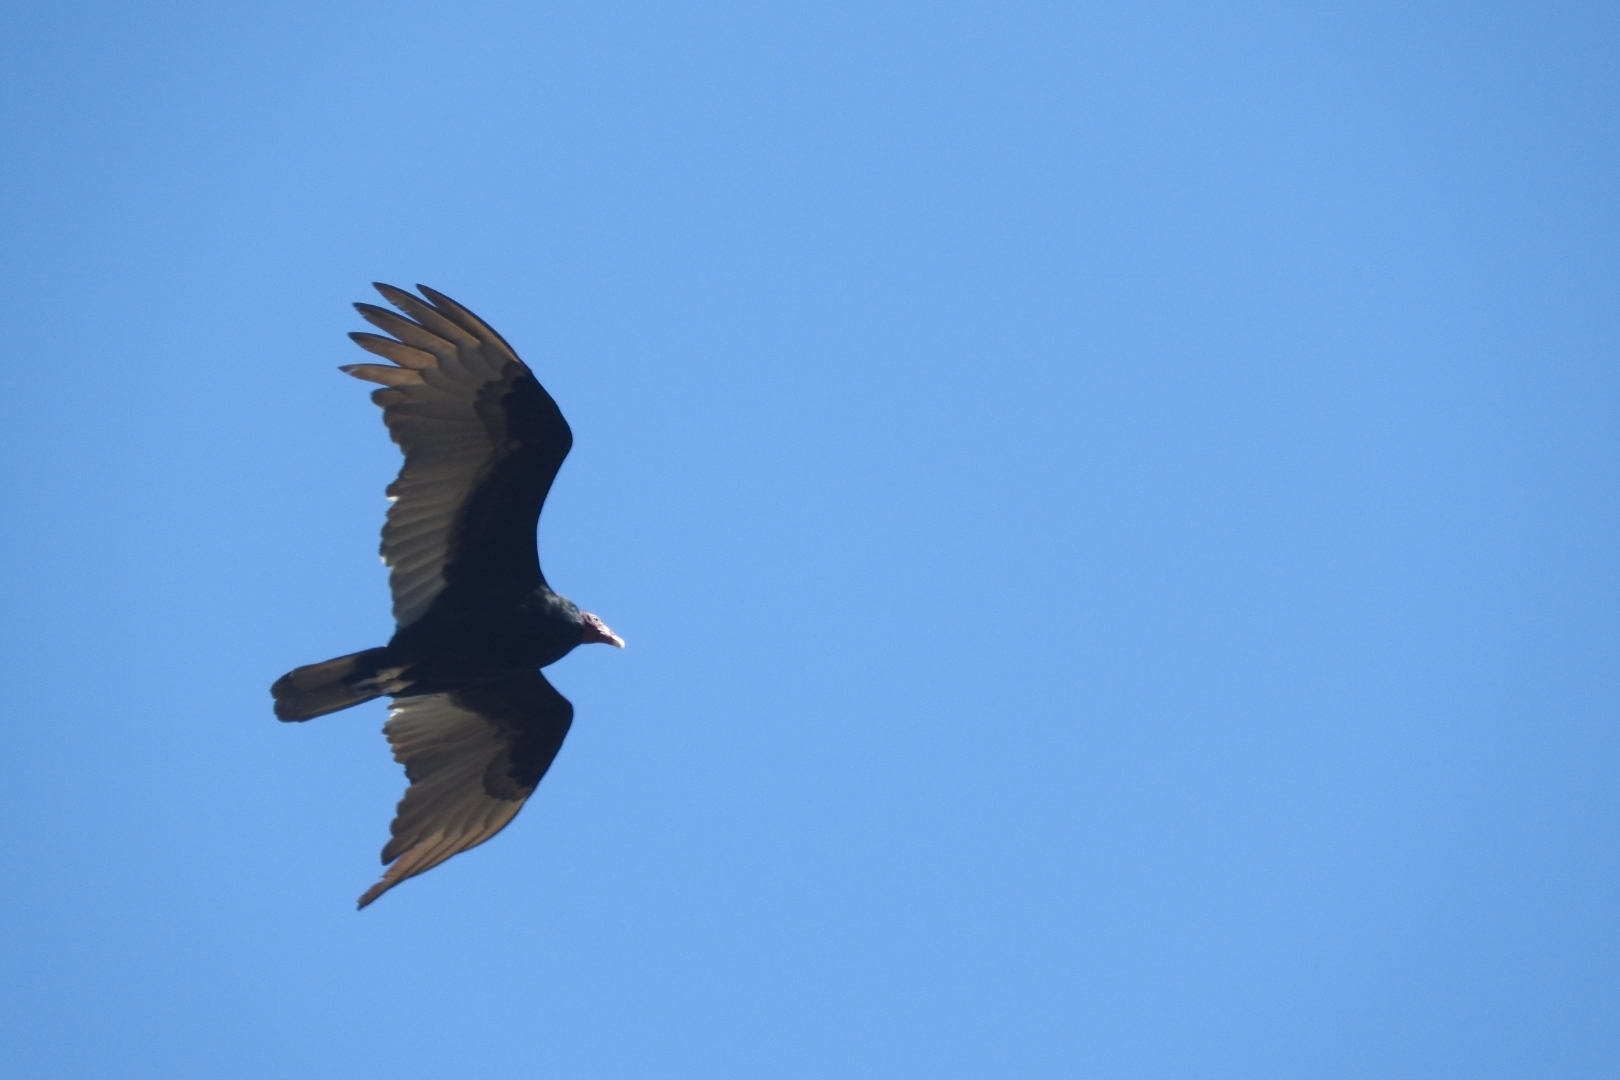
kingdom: Animalia
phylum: Chordata
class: Aves
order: Accipitriformes
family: Cathartidae
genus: Cathartes
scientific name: Cathartes aura
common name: Turkey vulture
